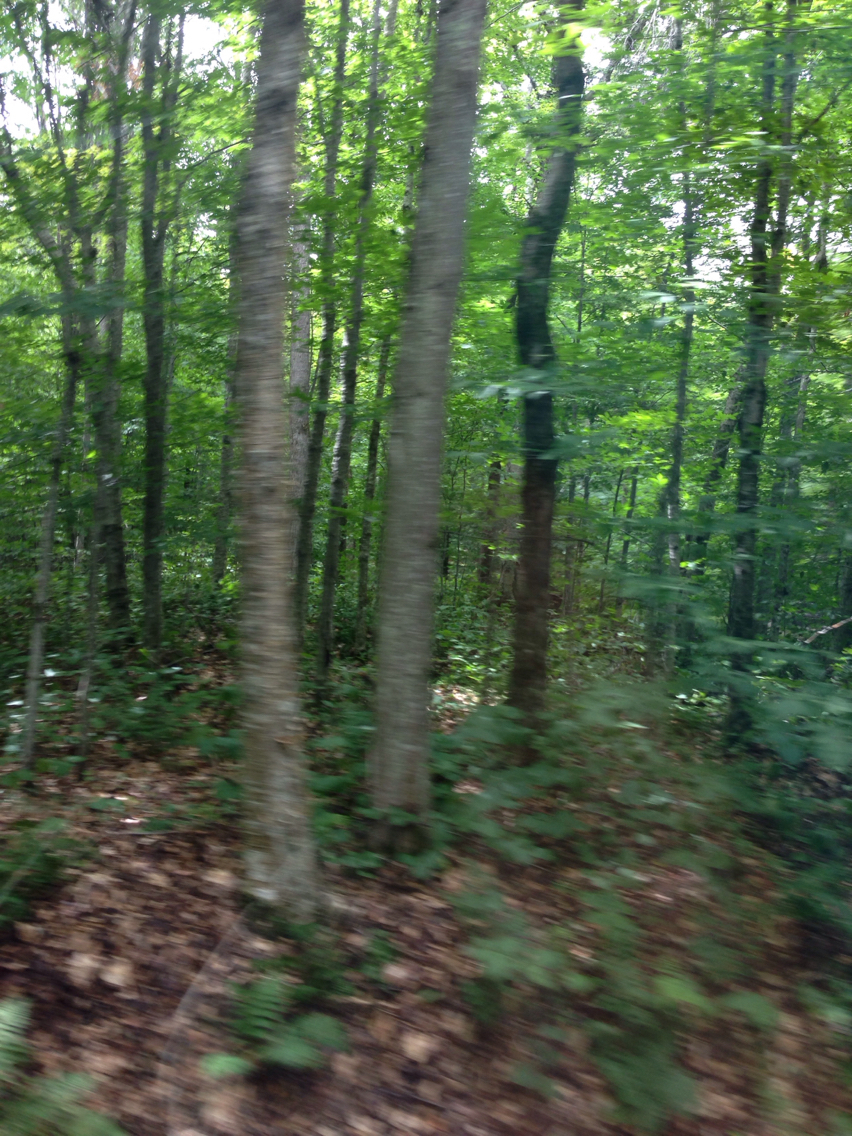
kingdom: Plantae
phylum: Tracheophyta
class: Magnoliopsida
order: Fagales
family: Betulaceae
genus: Betula
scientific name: Betula alleghaniensis
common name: Yellow birch
